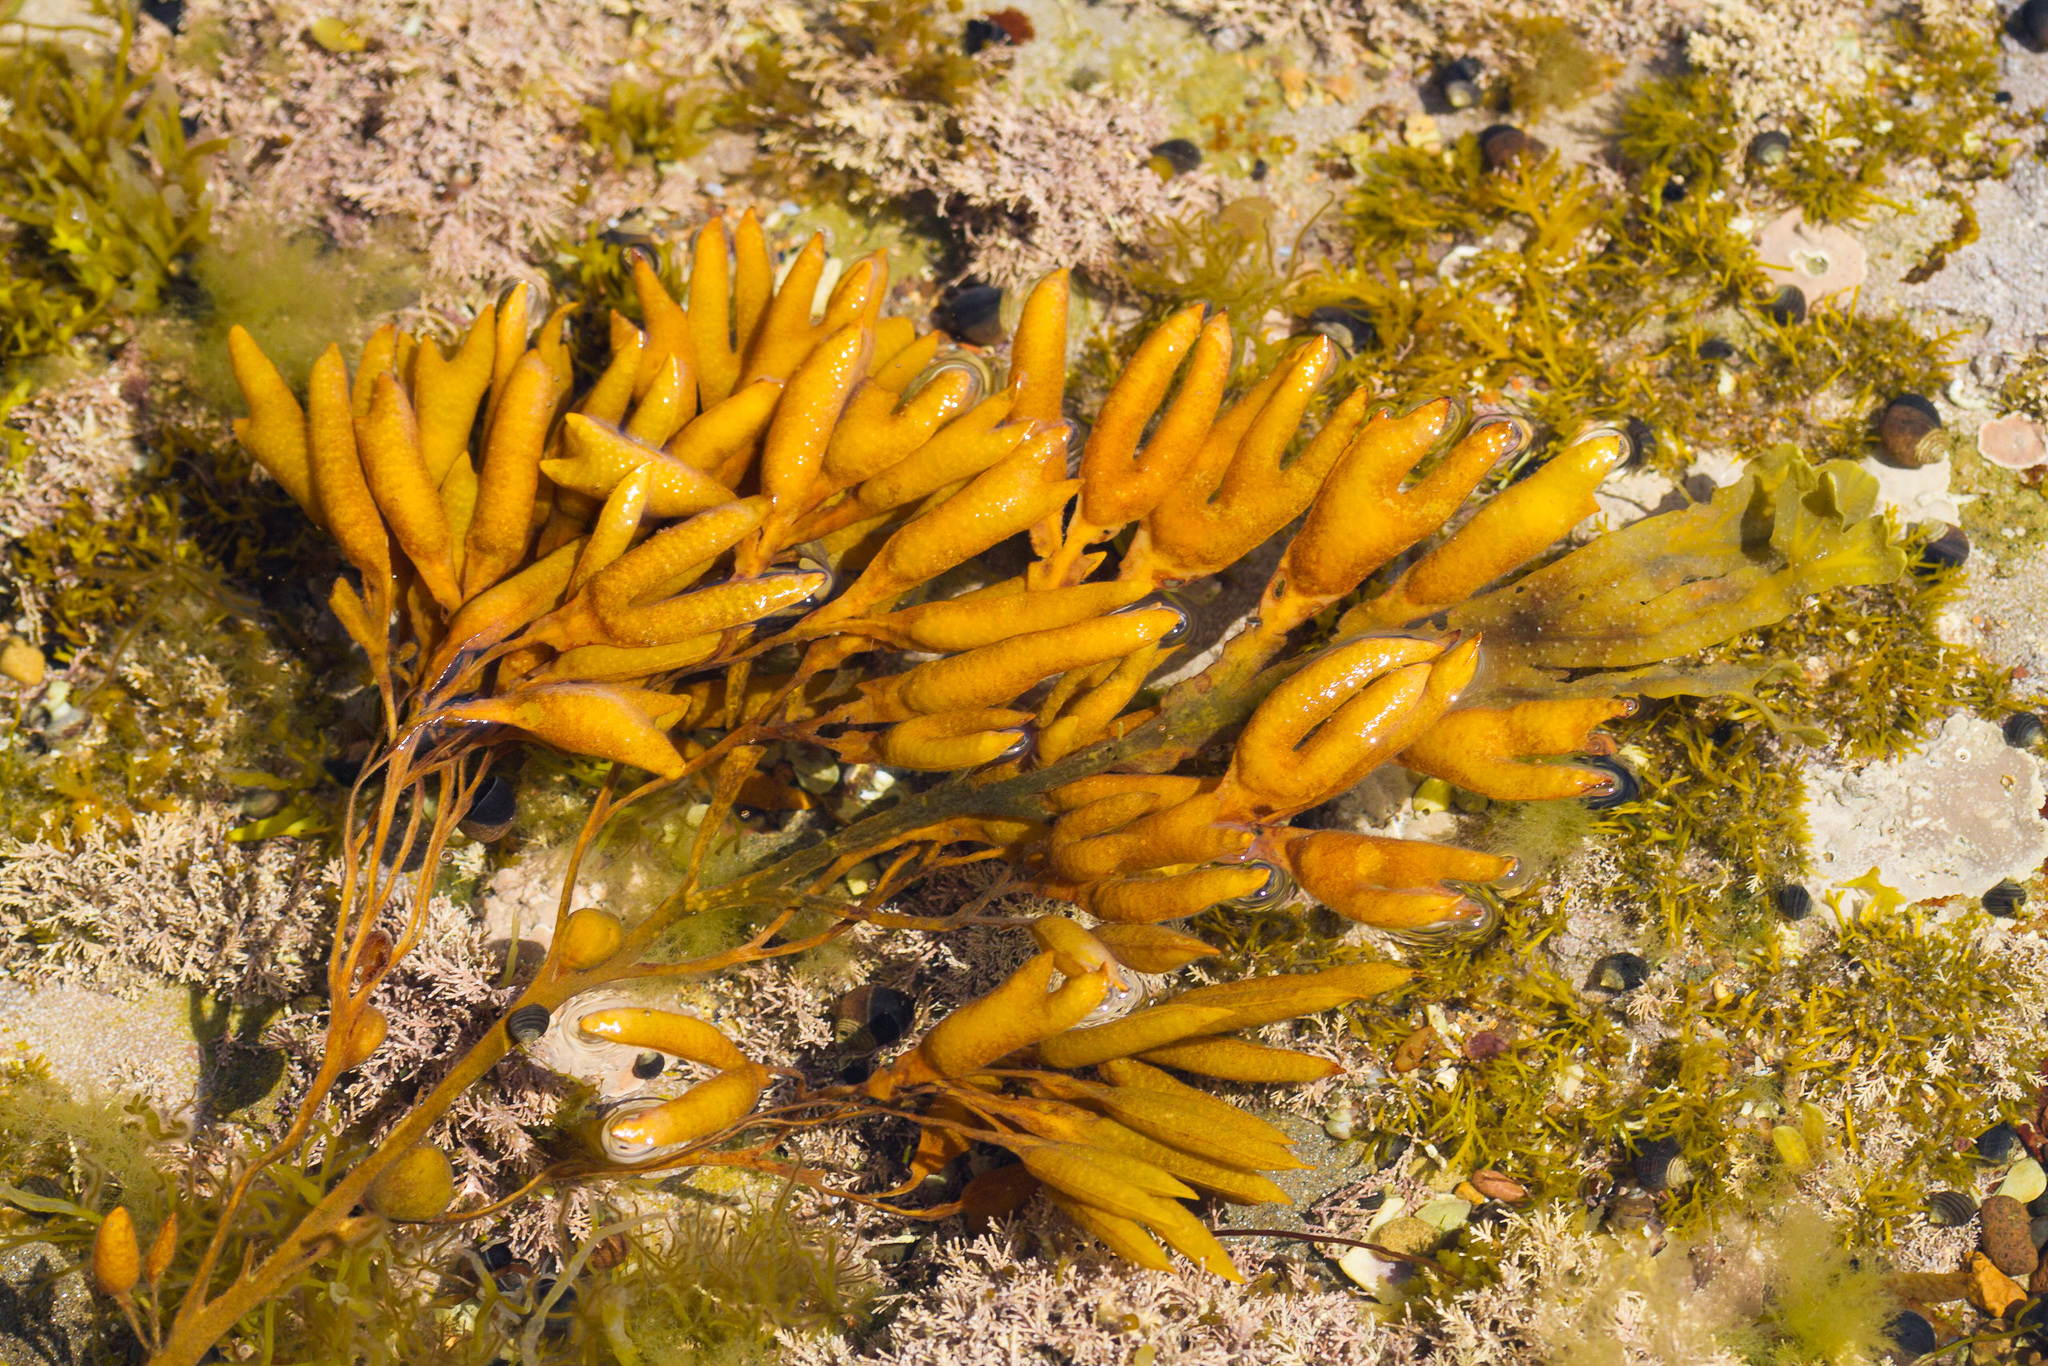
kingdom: Chromista
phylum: Ochrophyta
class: Phaeophyceae
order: Fucales
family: Fucaceae
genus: Fucus
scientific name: Fucus vesiculosus
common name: Bladder wrack
